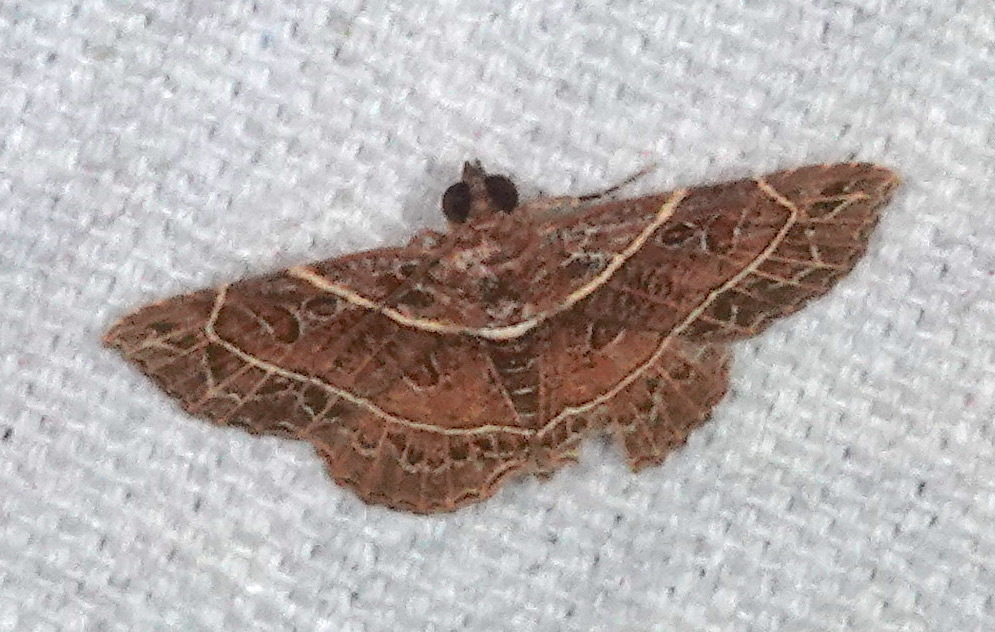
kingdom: Animalia
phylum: Arthropoda
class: Insecta
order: Lepidoptera
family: Erebidae
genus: Antiblemma
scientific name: Antiblemma fuscireticulata
